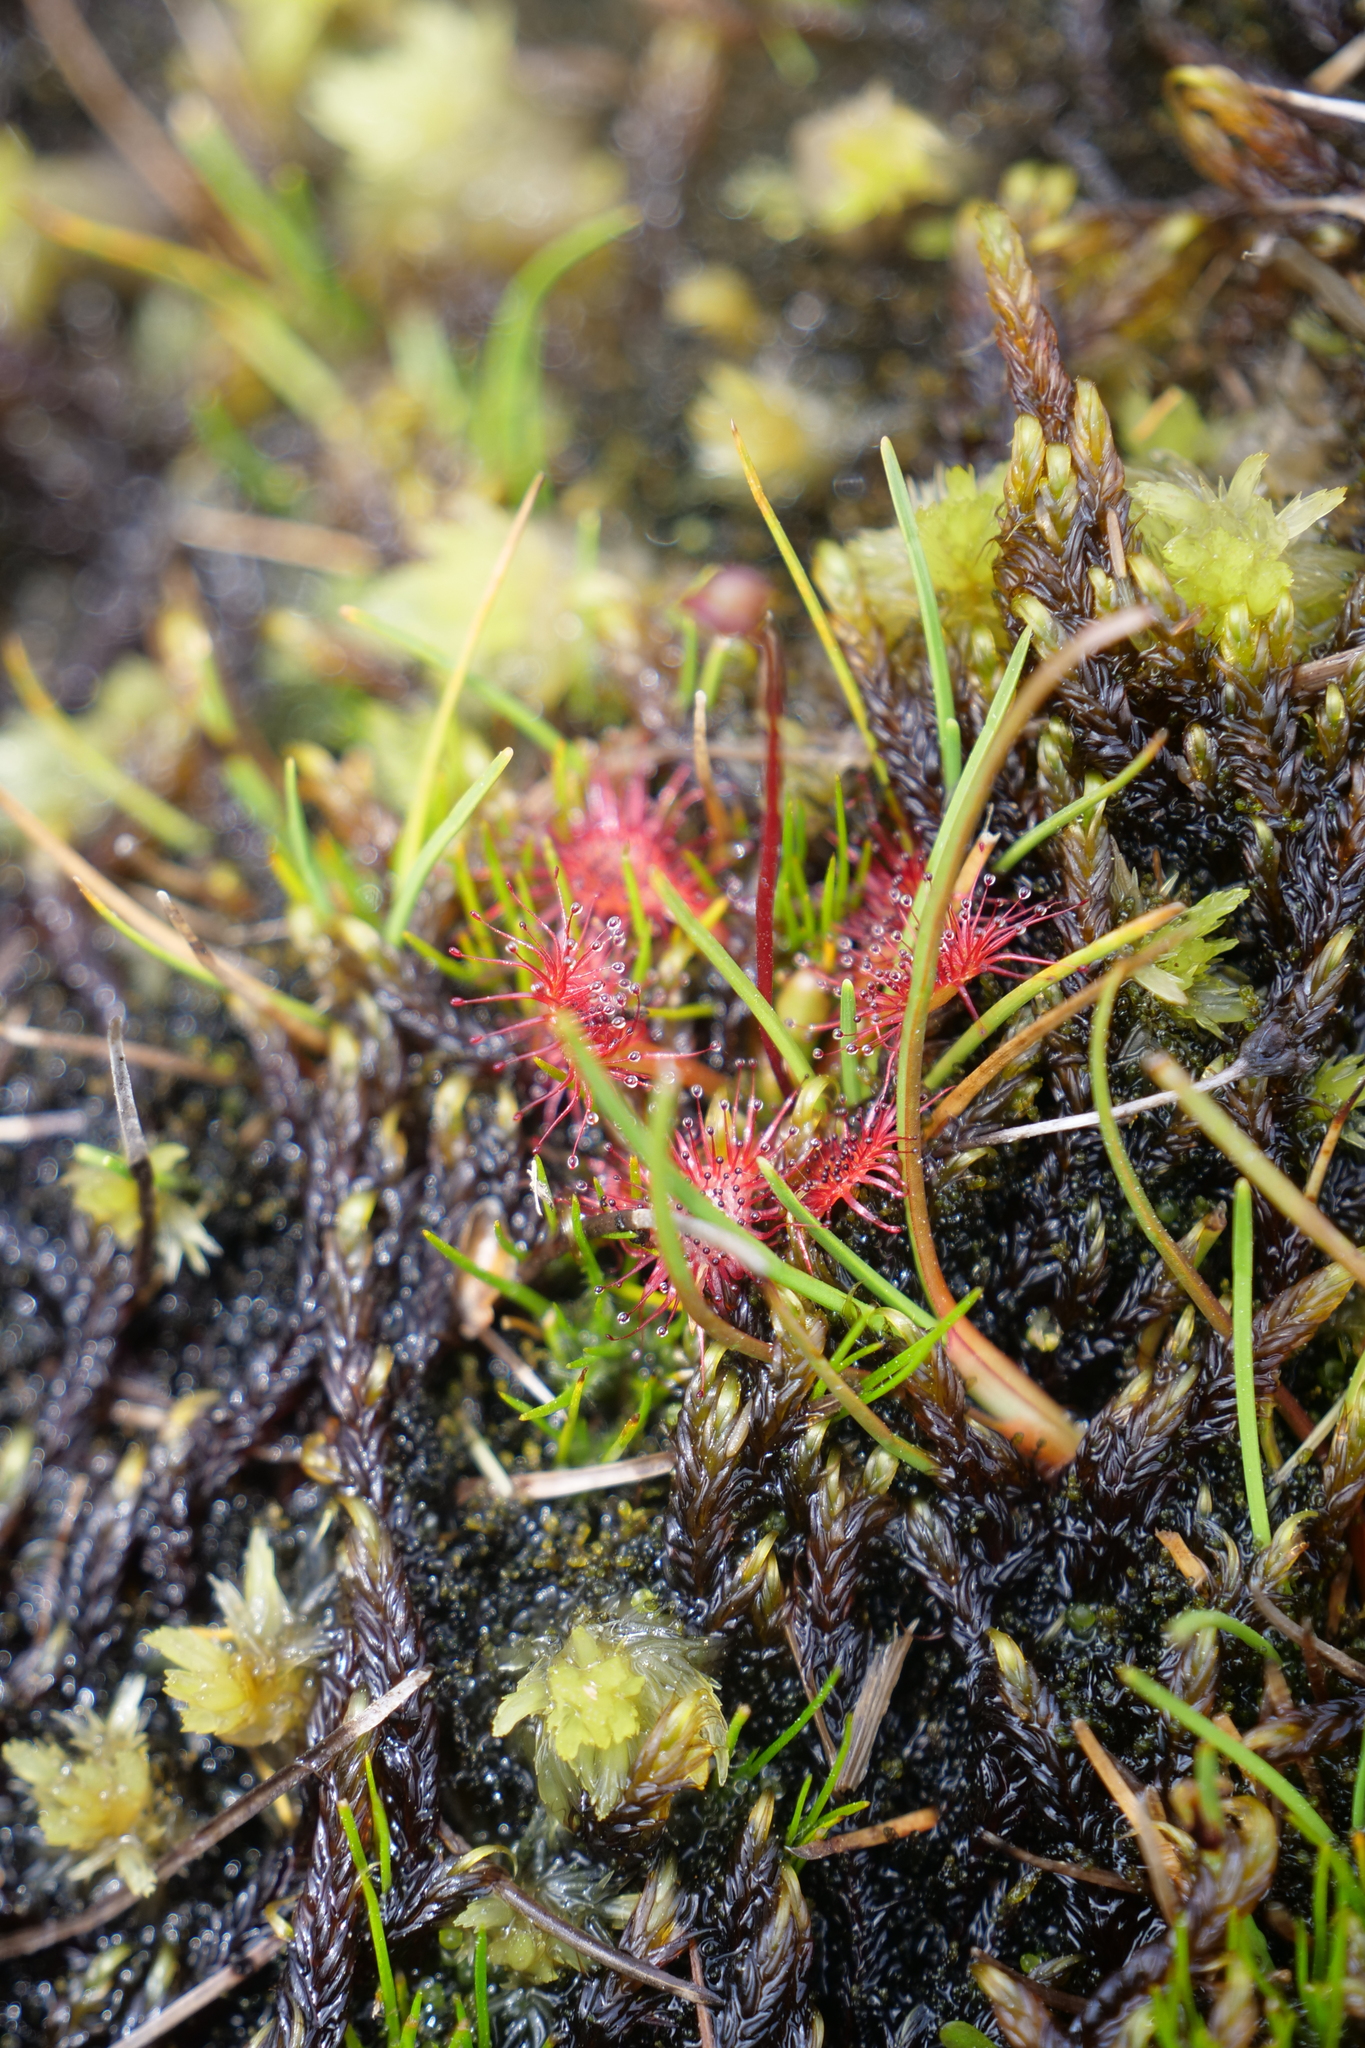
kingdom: Plantae
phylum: Tracheophyta
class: Magnoliopsida
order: Caryophyllales
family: Droseraceae
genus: Drosera
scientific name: Drosera spatulata
